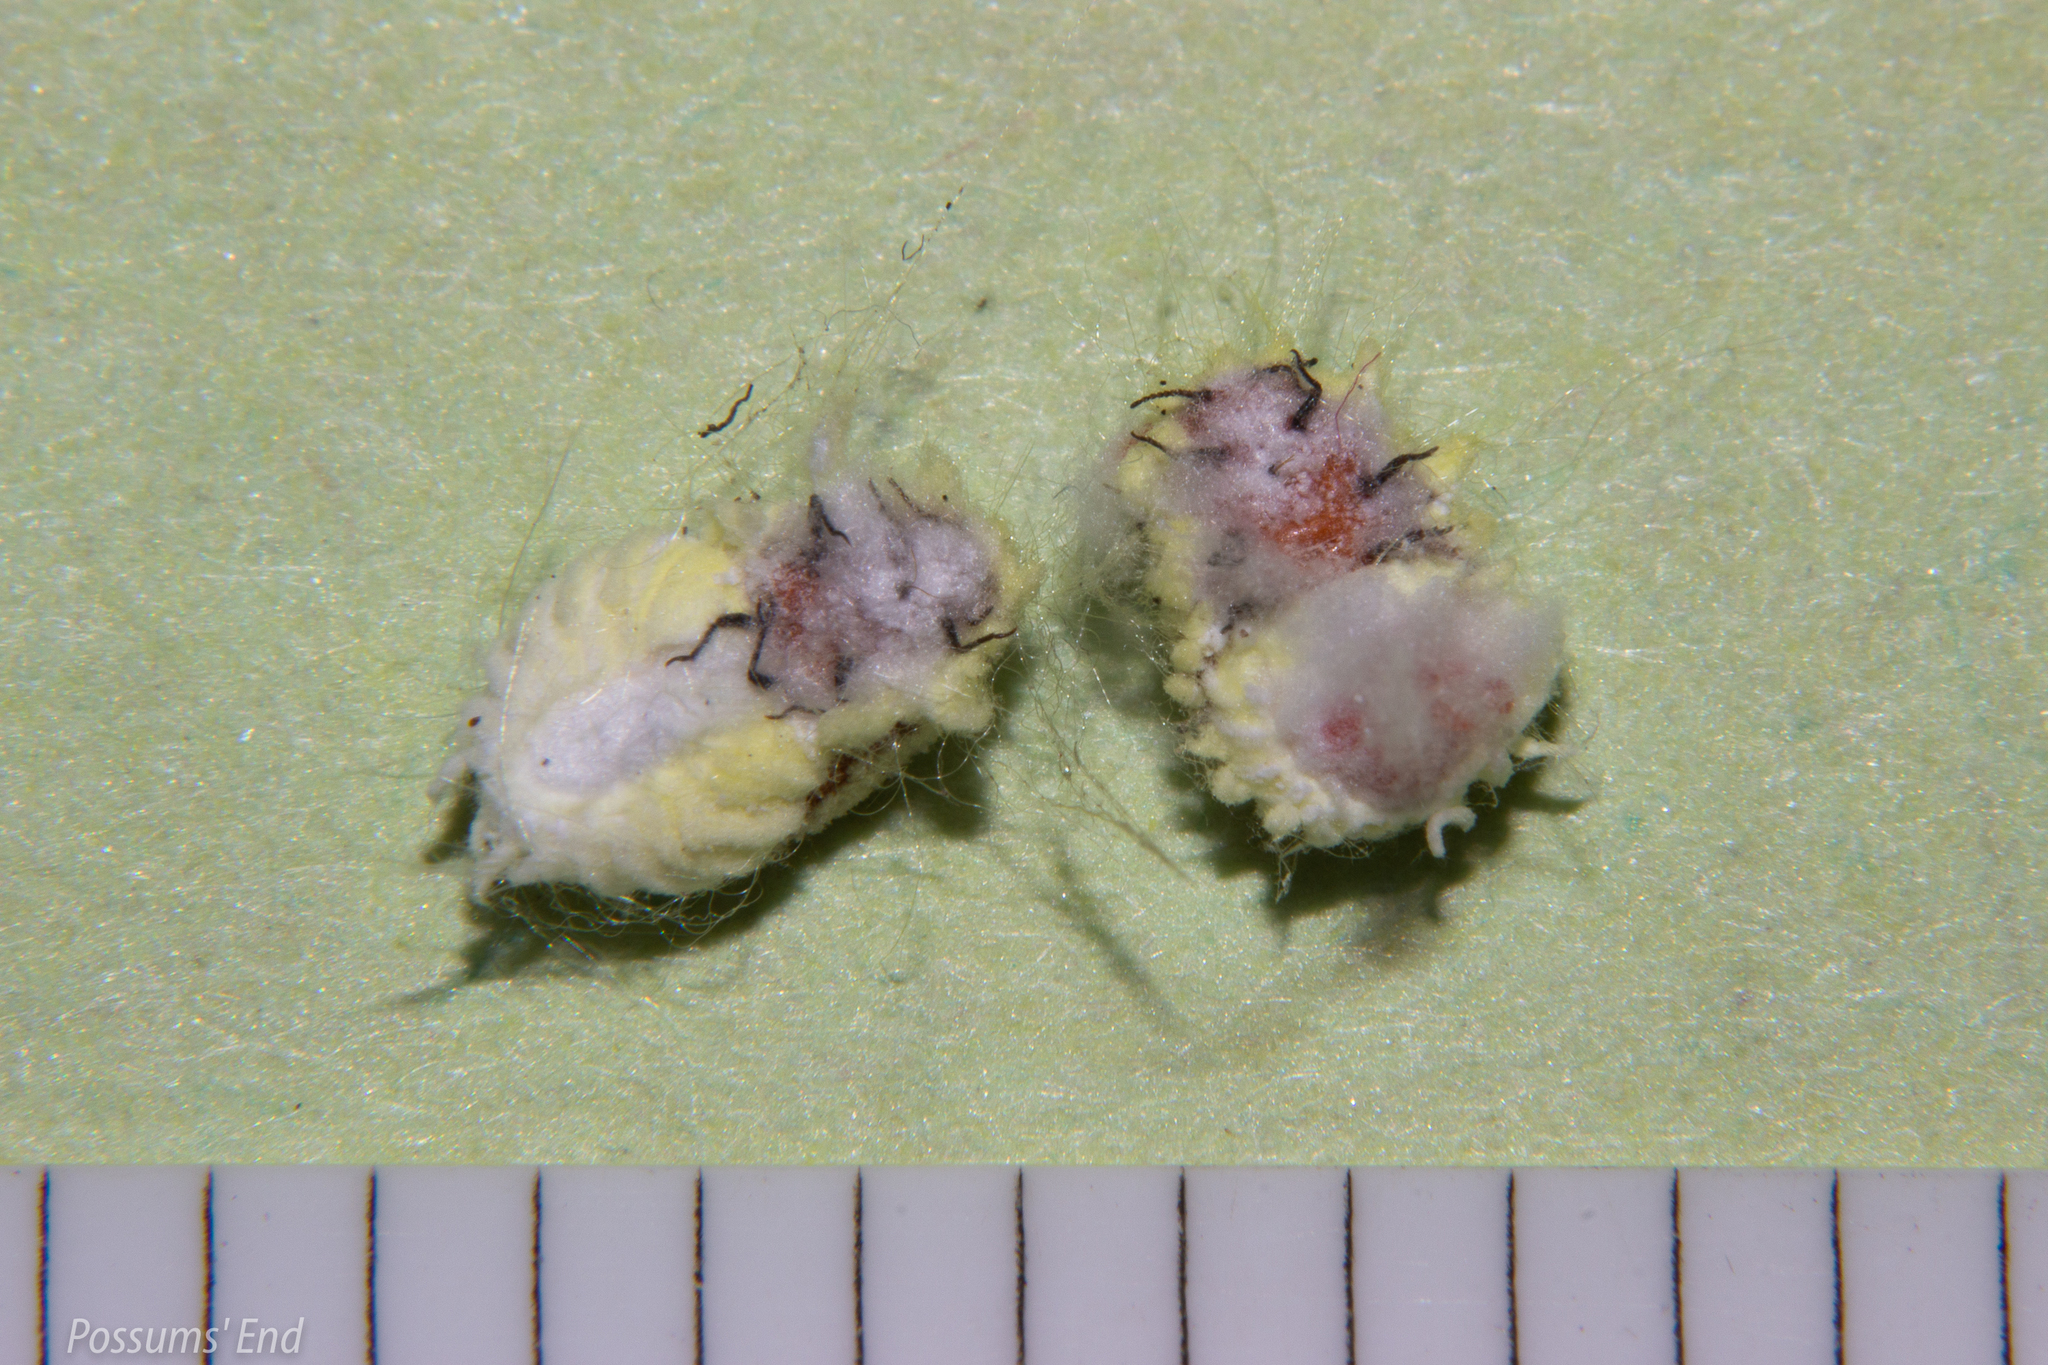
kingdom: Animalia
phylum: Arthropoda
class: Insecta
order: Hemiptera
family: Margarodidae
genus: Icerya
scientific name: Icerya purchasi
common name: Cottony cushion scale
